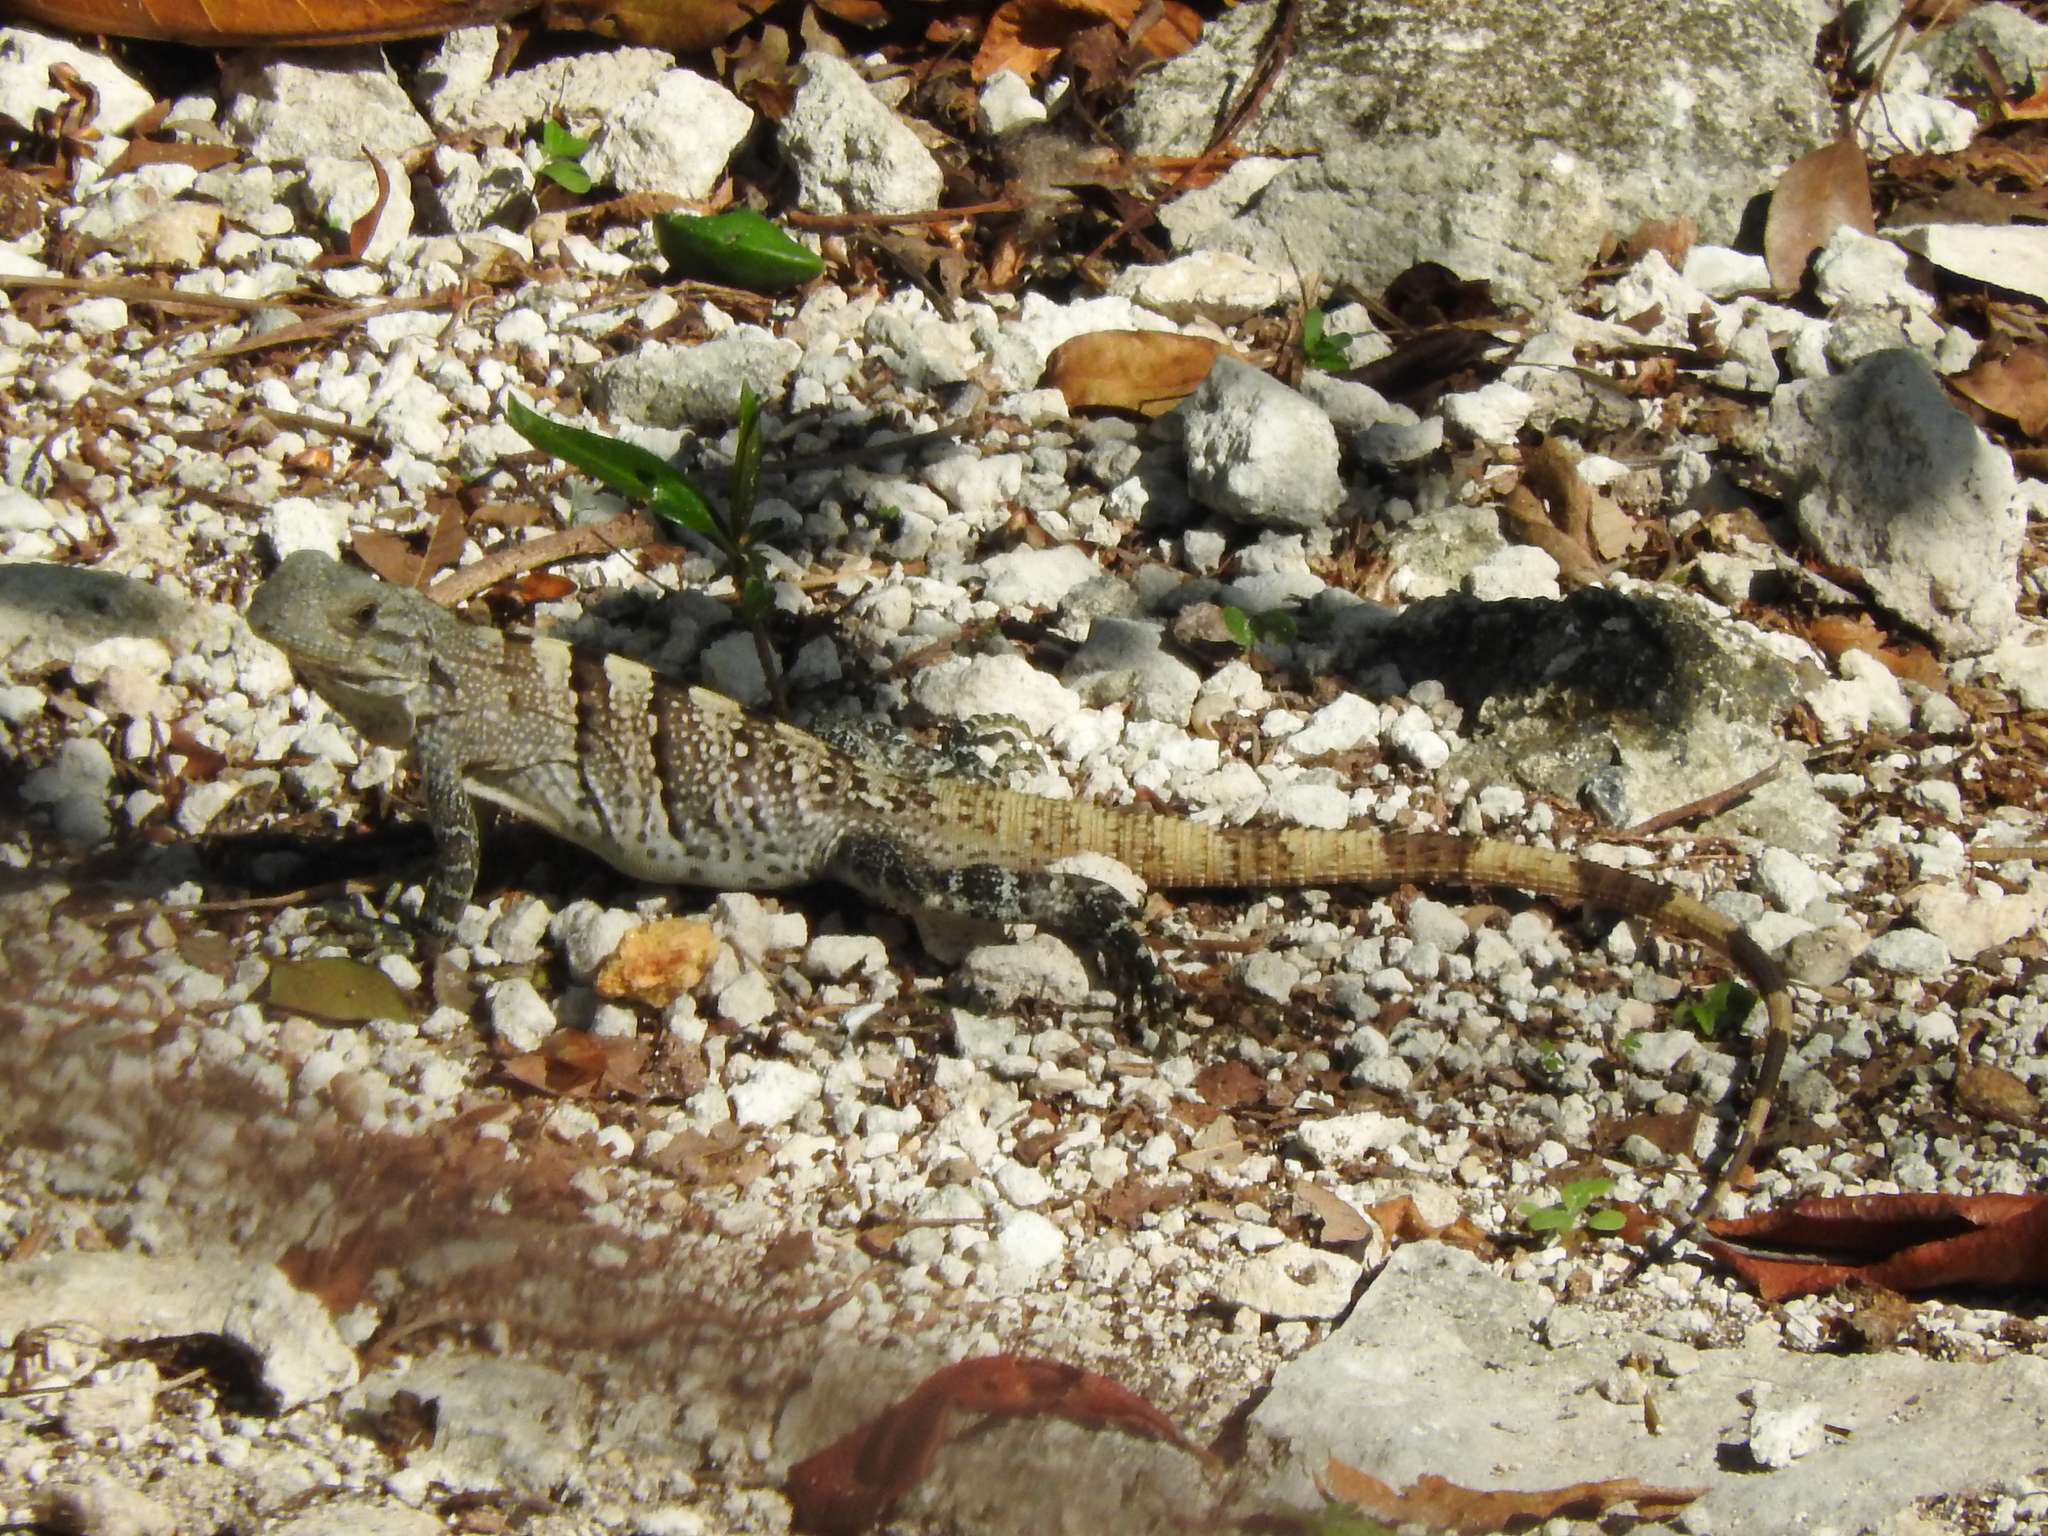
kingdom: Animalia
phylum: Chordata
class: Squamata
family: Iguanidae
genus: Ctenosaura
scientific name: Ctenosaura similis
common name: Black spiny-tailed iguana
